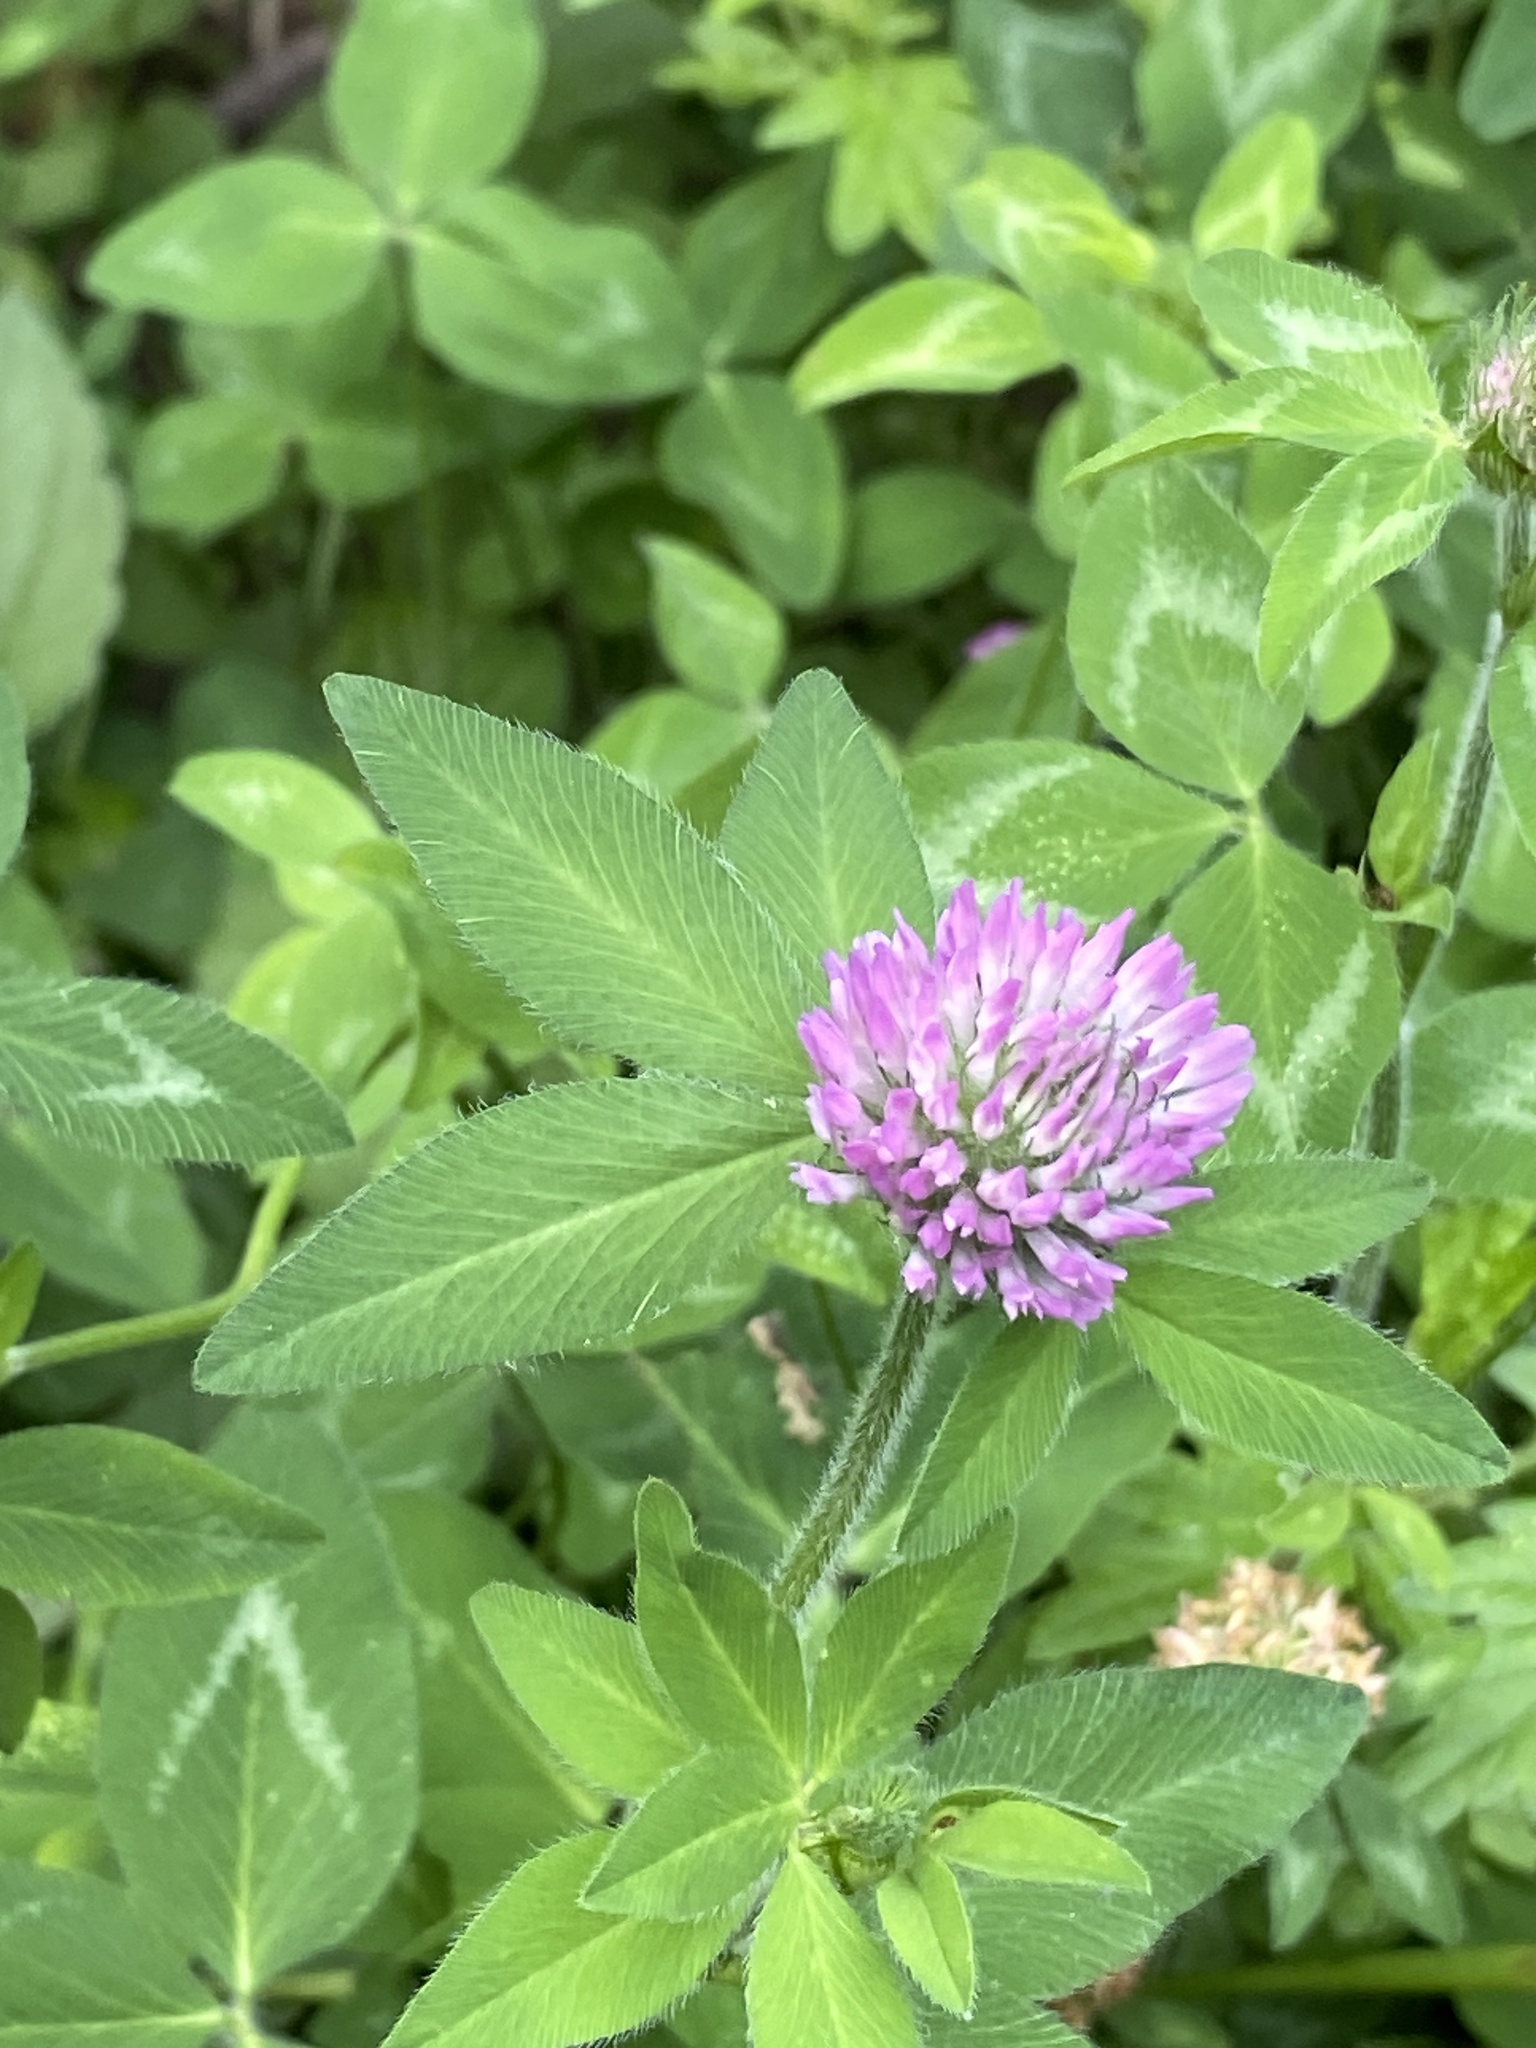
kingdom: Plantae
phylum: Tracheophyta
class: Magnoliopsida
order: Fabales
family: Fabaceae
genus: Trifolium
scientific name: Trifolium pratense
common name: Red clover
